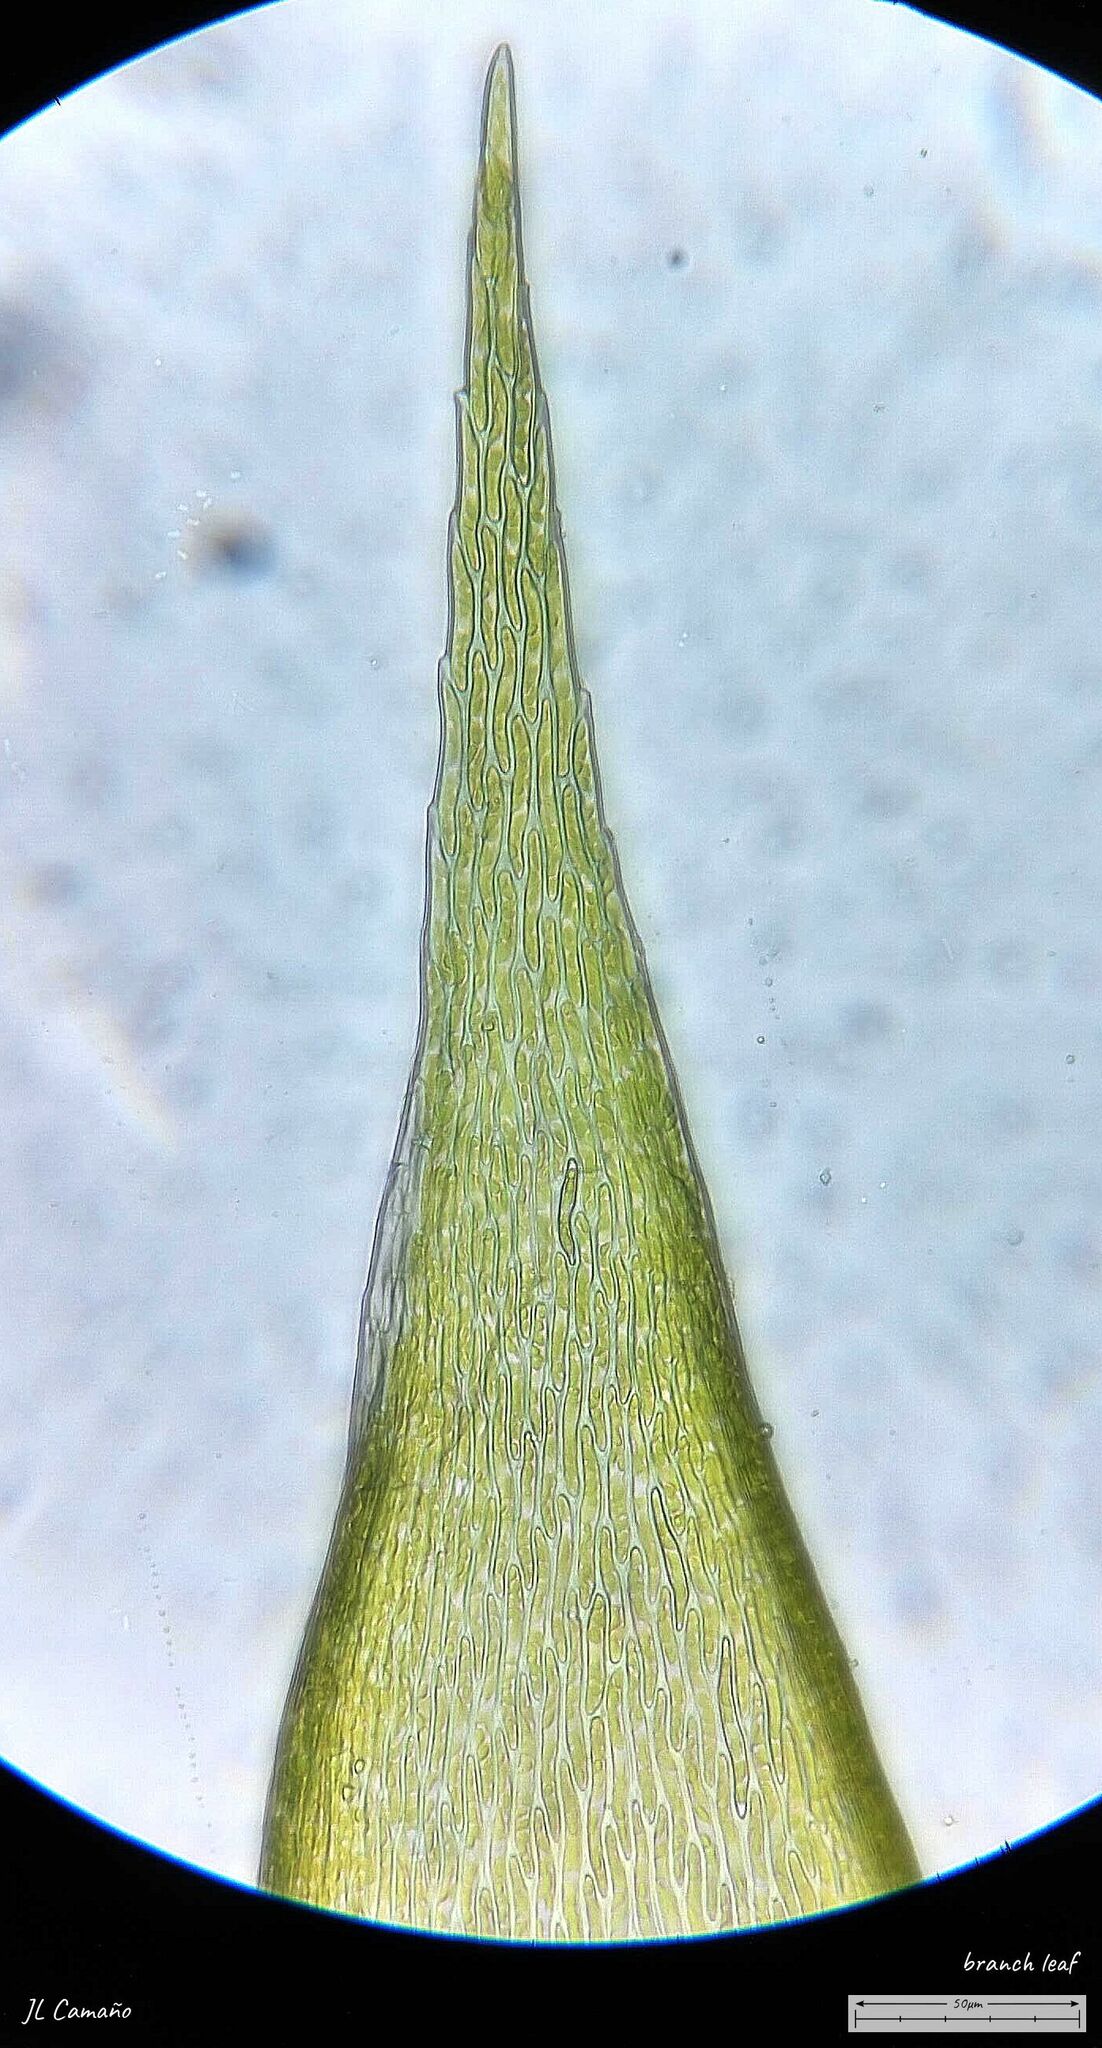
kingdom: Plantae
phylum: Bryophyta
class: Bryopsida
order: Hypnales
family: Hypnaceae
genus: Hypnum
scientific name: Hypnum resupinatum
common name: Supine plait-moss
